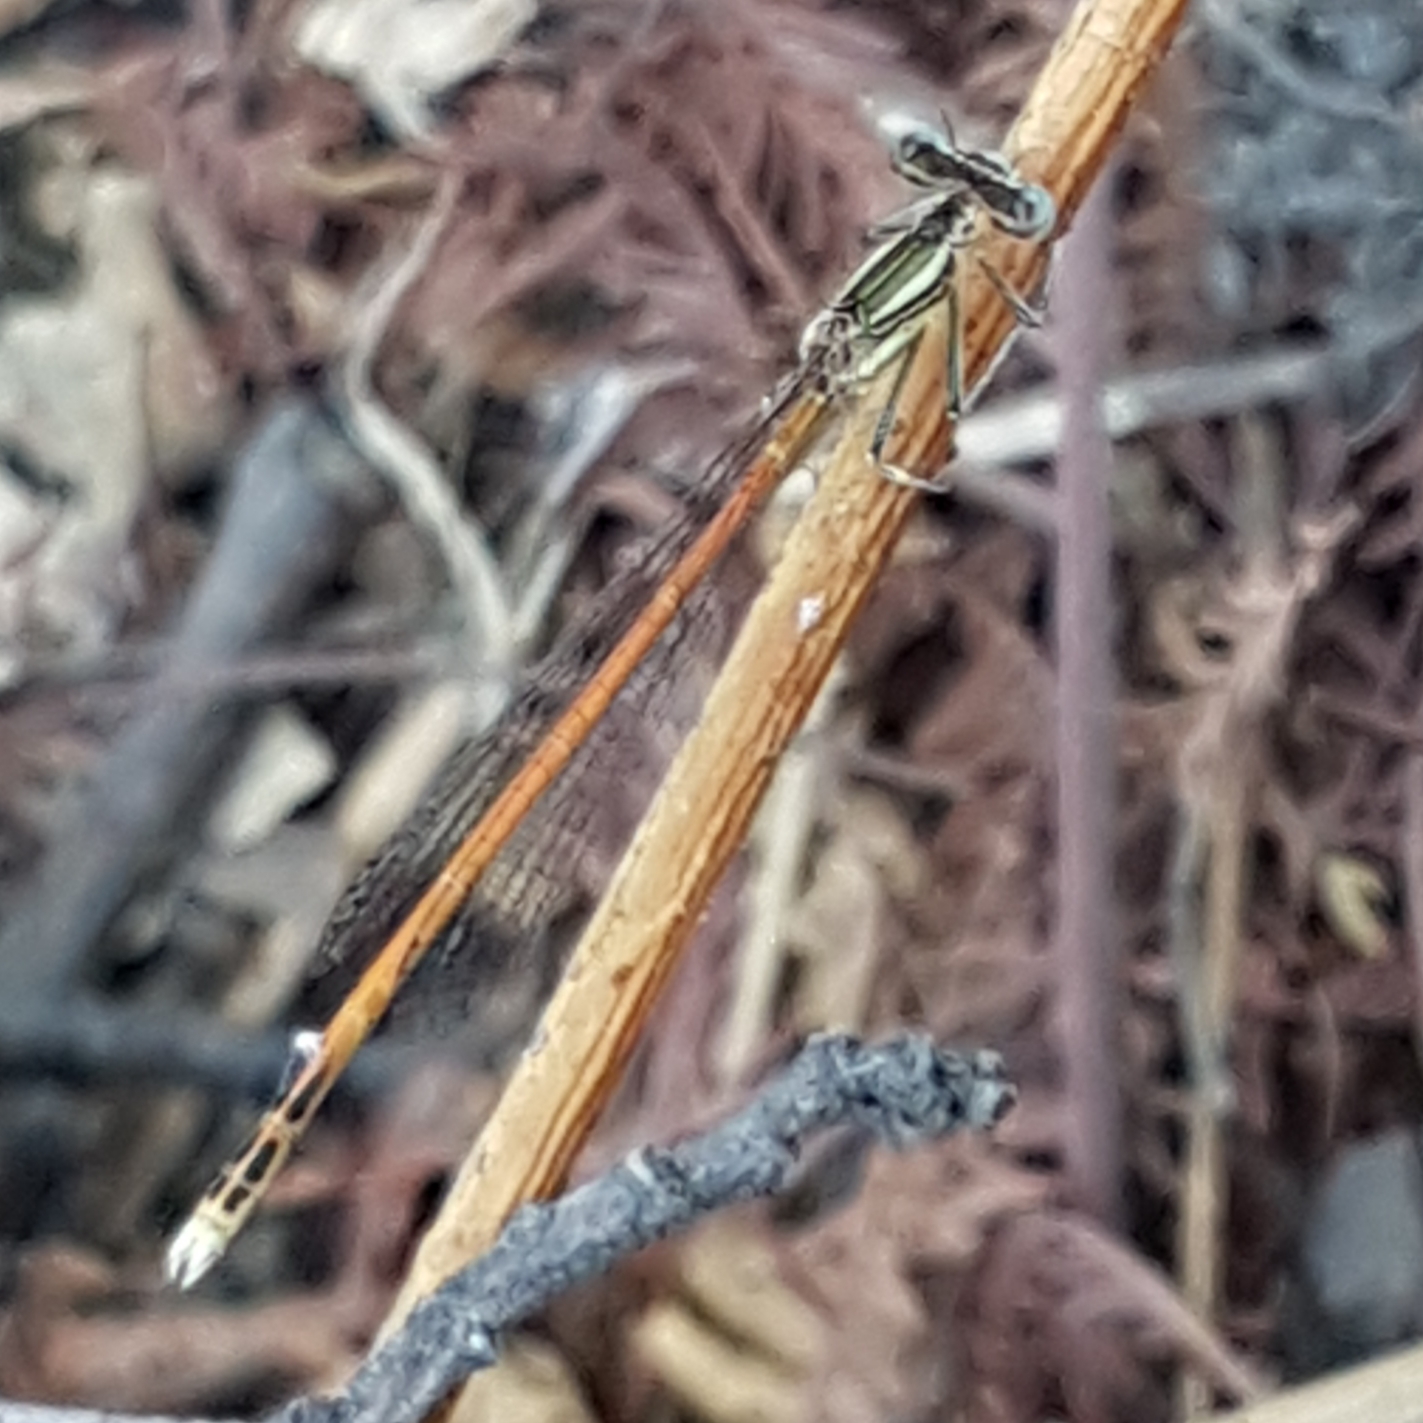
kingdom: Animalia
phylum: Arthropoda
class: Insecta
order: Odonata
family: Platycnemididae
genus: Platycnemis
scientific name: Platycnemis acutipennis
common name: Orange featherleg
